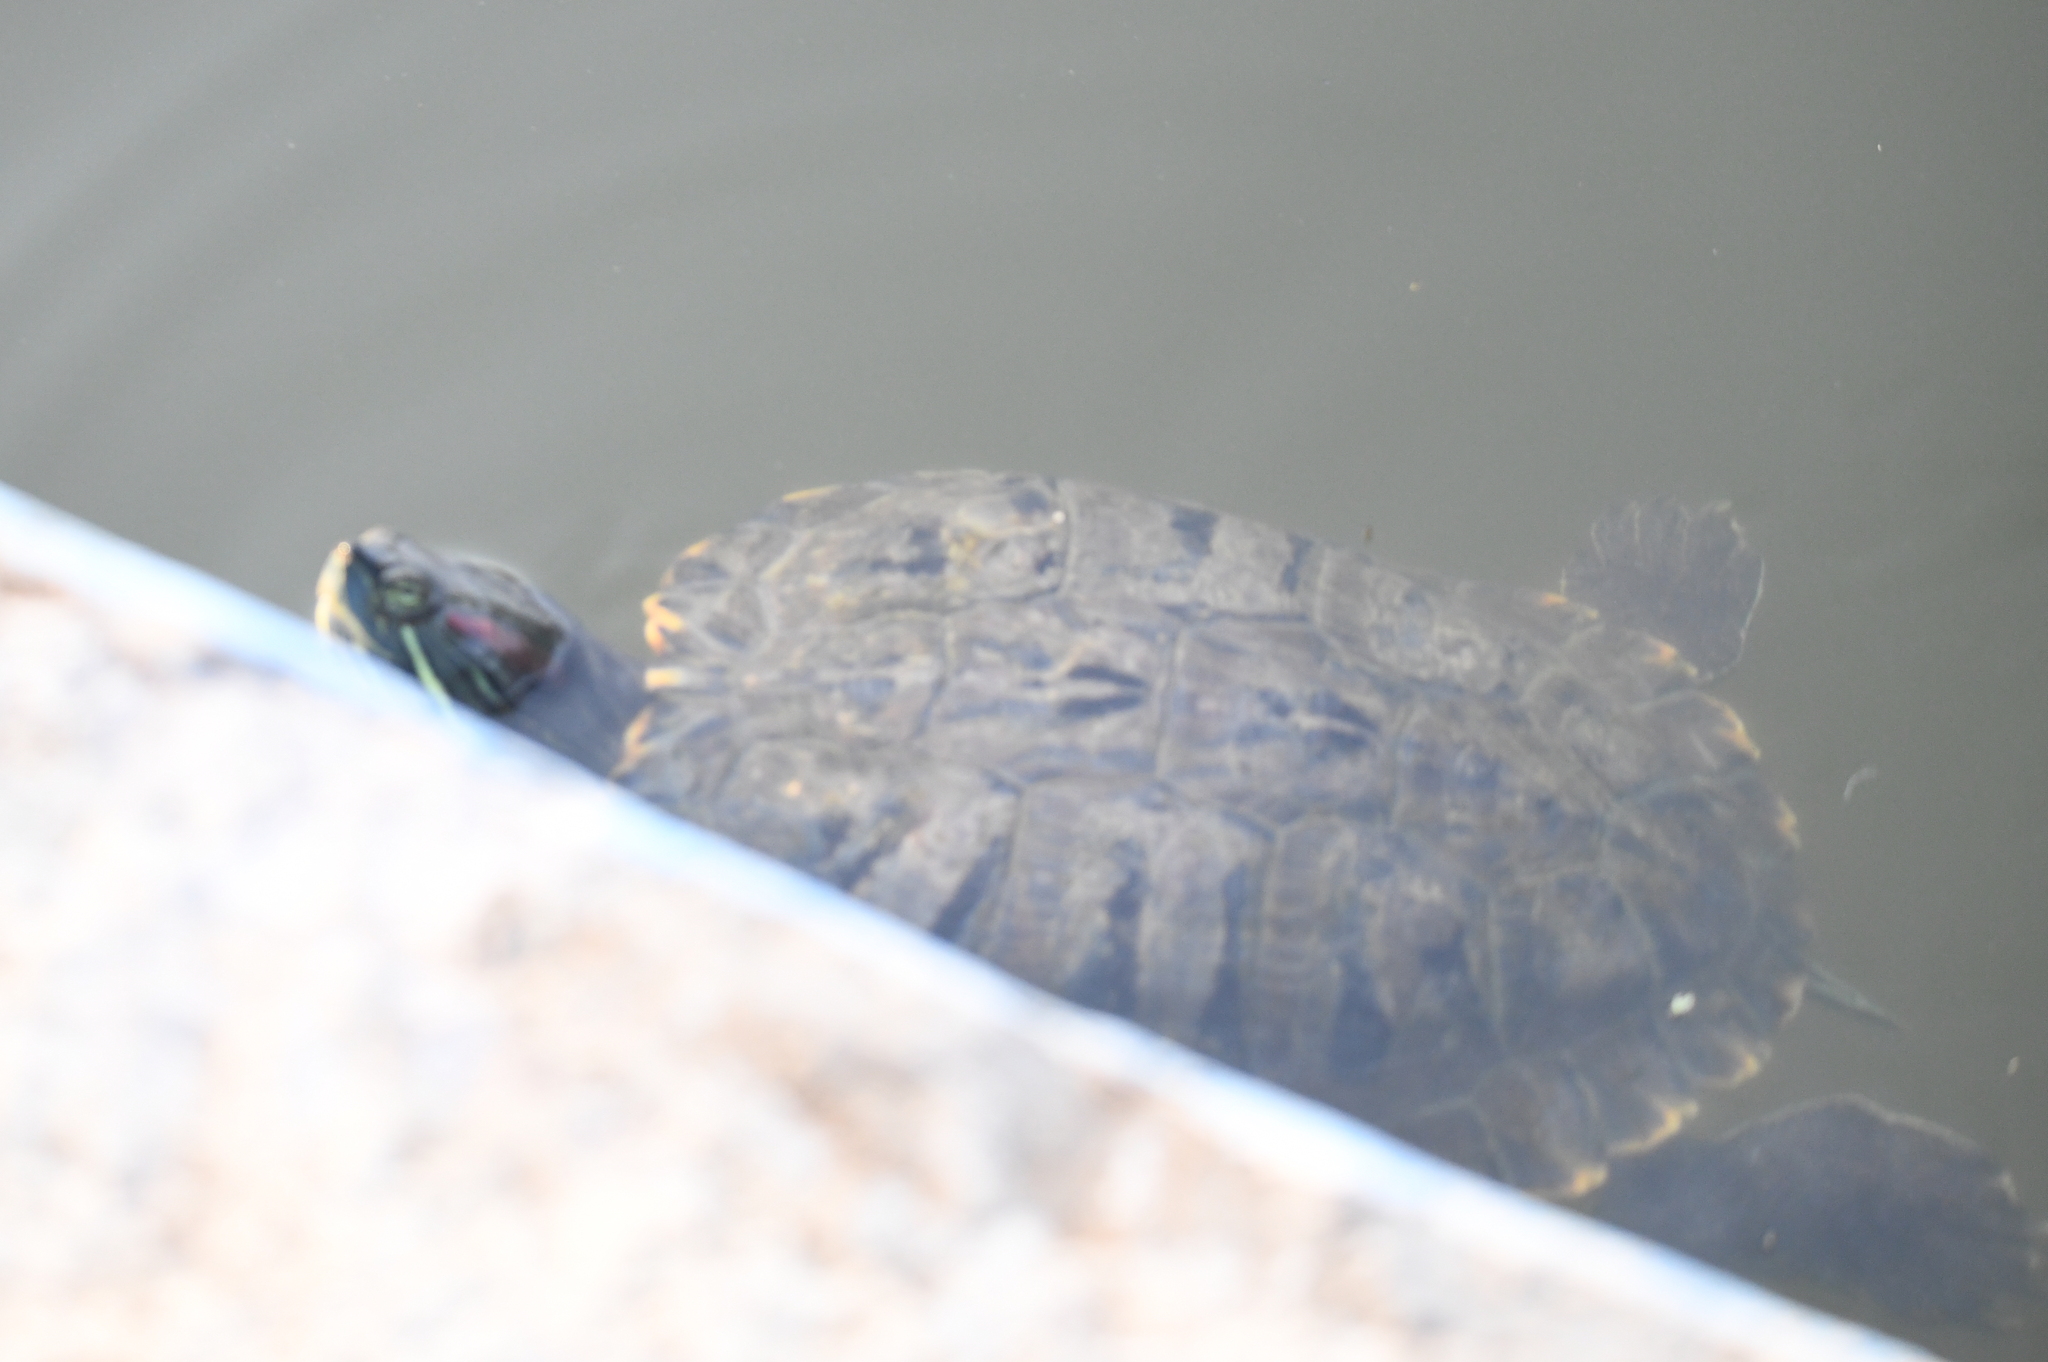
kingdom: Animalia
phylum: Chordata
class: Testudines
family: Emydidae
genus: Trachemys
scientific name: Trachemys scripta
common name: Slider
